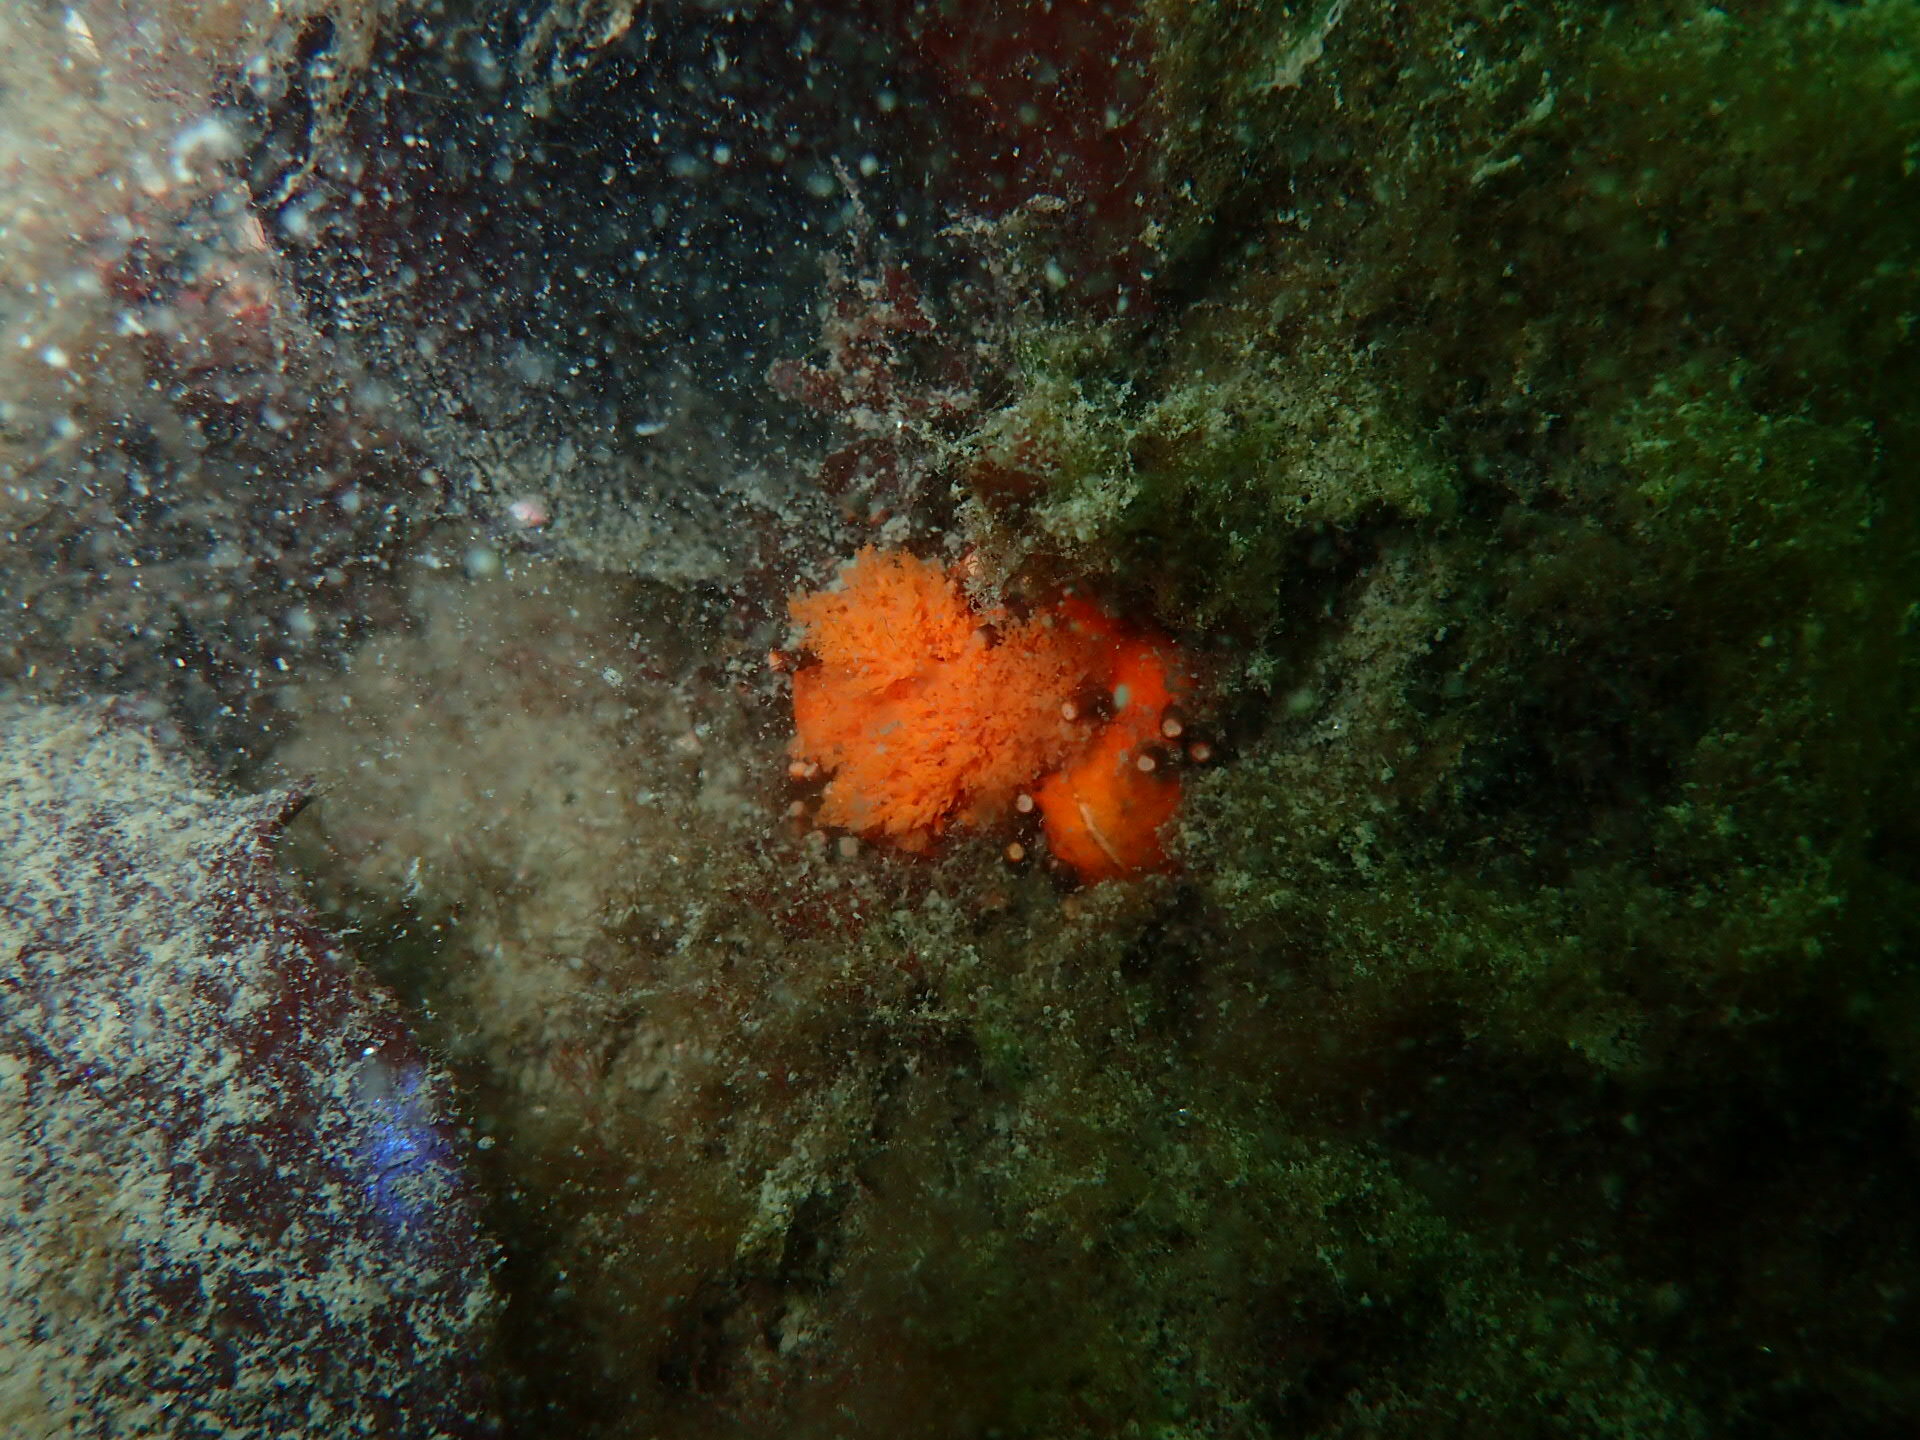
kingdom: Animalia
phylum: Echinodermata
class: Holothuroidea
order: Dendrochirotida
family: Cucumariidae
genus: Cucumaria
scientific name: Cucumaria miniata
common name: Orange sea cucumber
